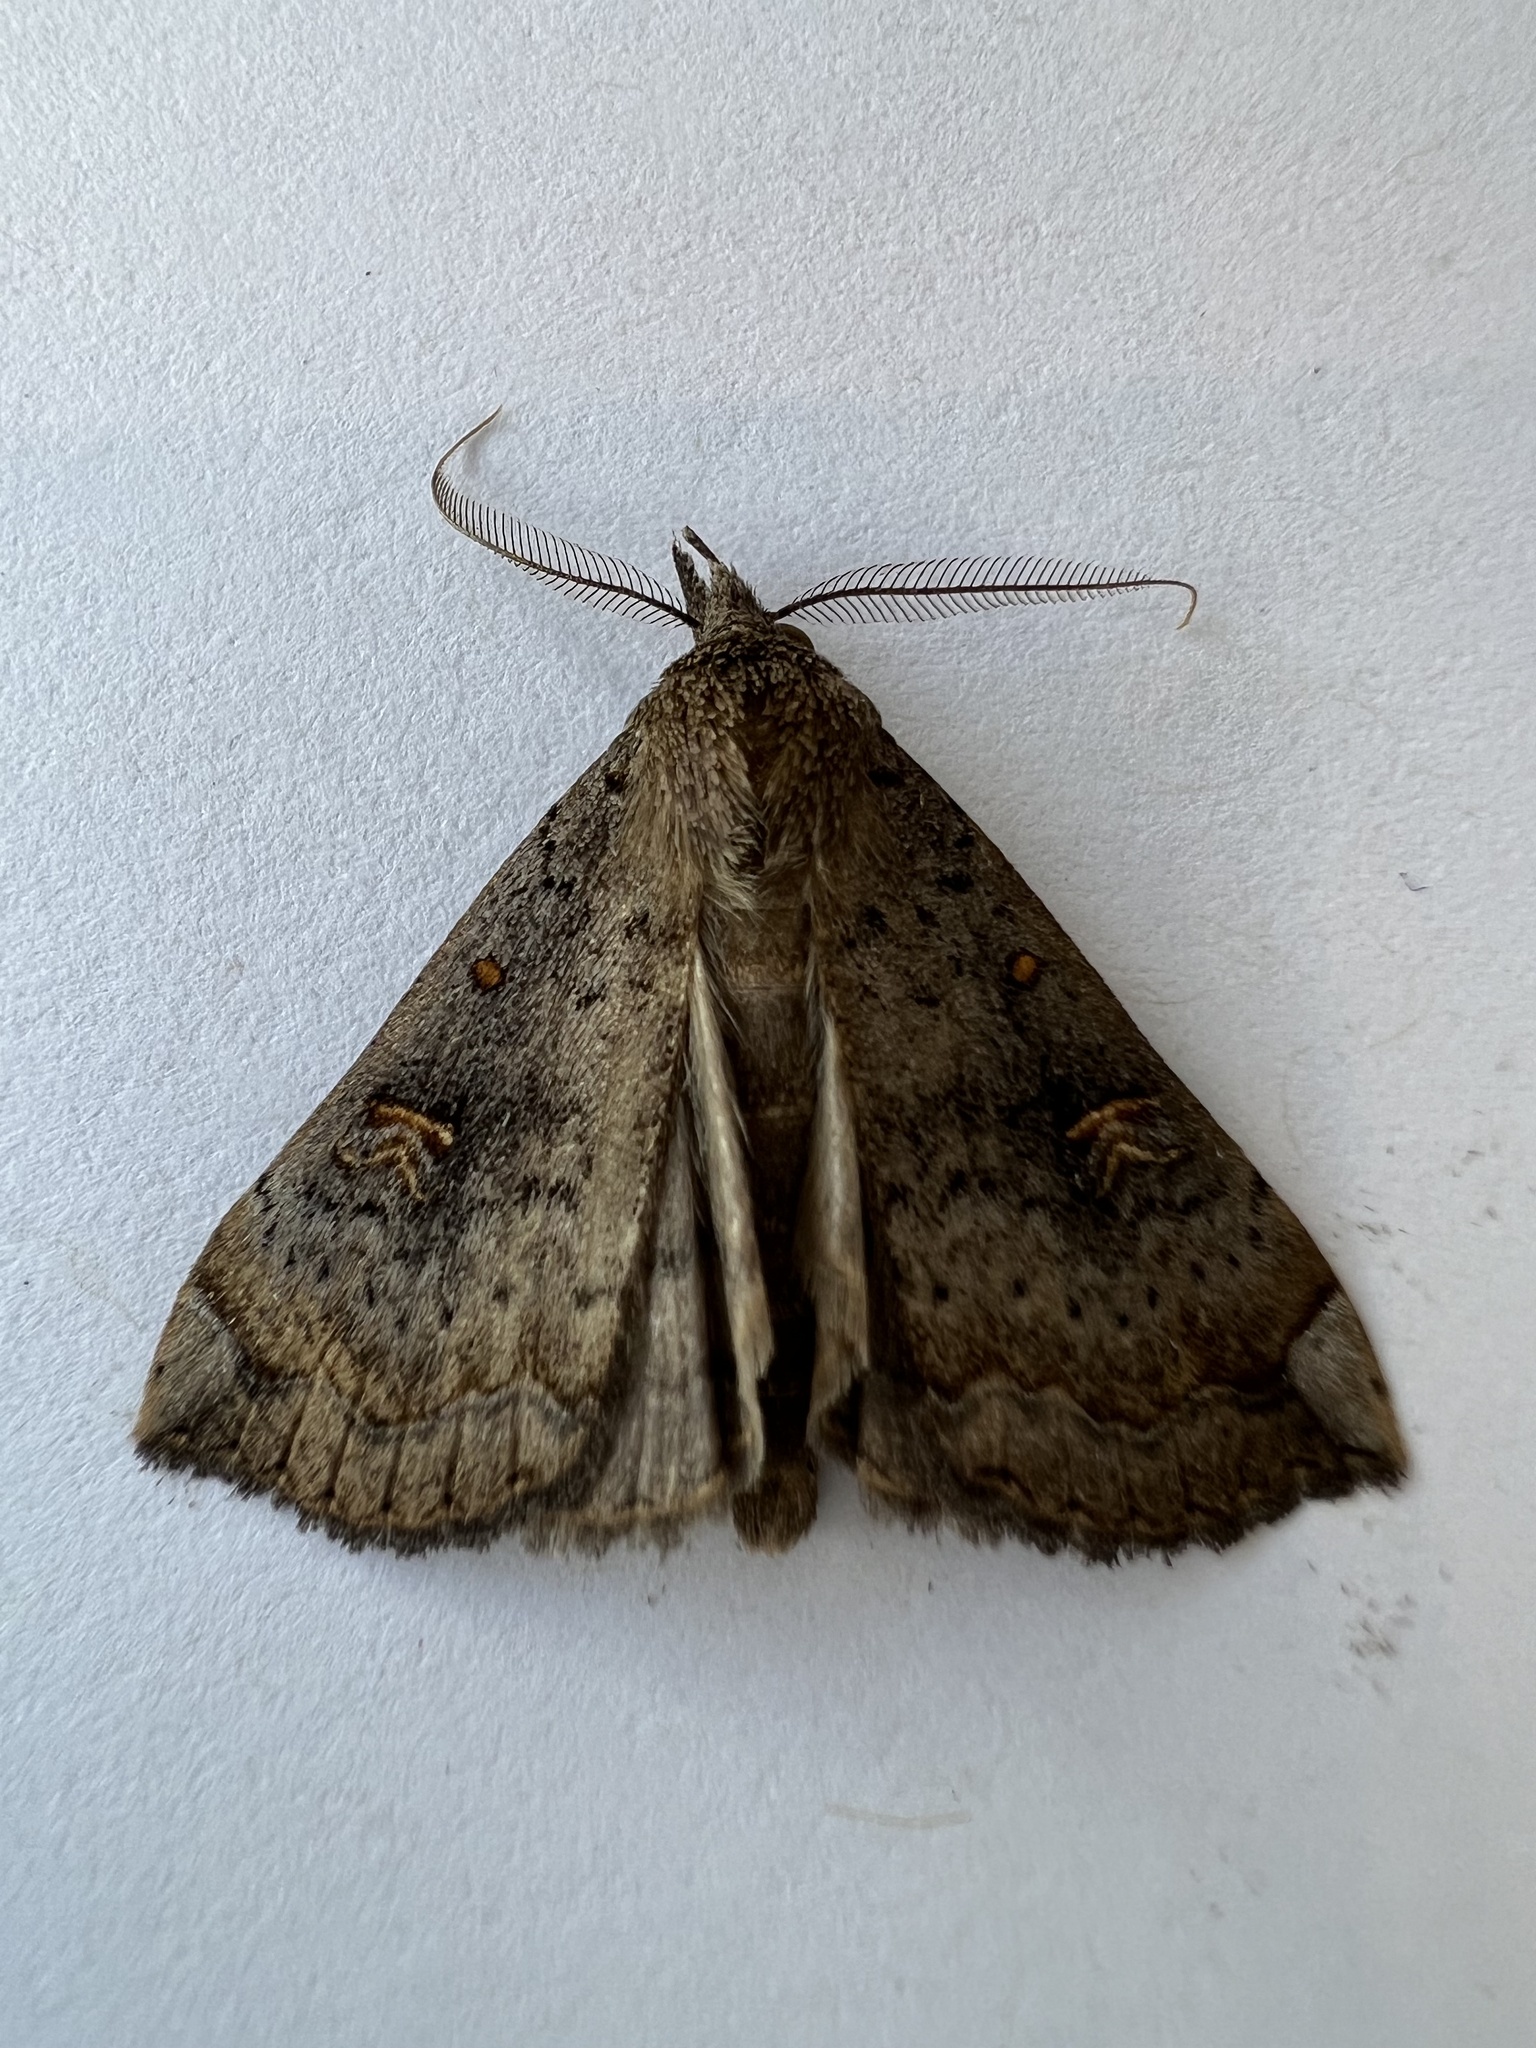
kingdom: Animalia
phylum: Arthropoda
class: Insecta
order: Lepidoptera
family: Erebidae
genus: Rhapsa
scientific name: Rhapsa scotosialis
